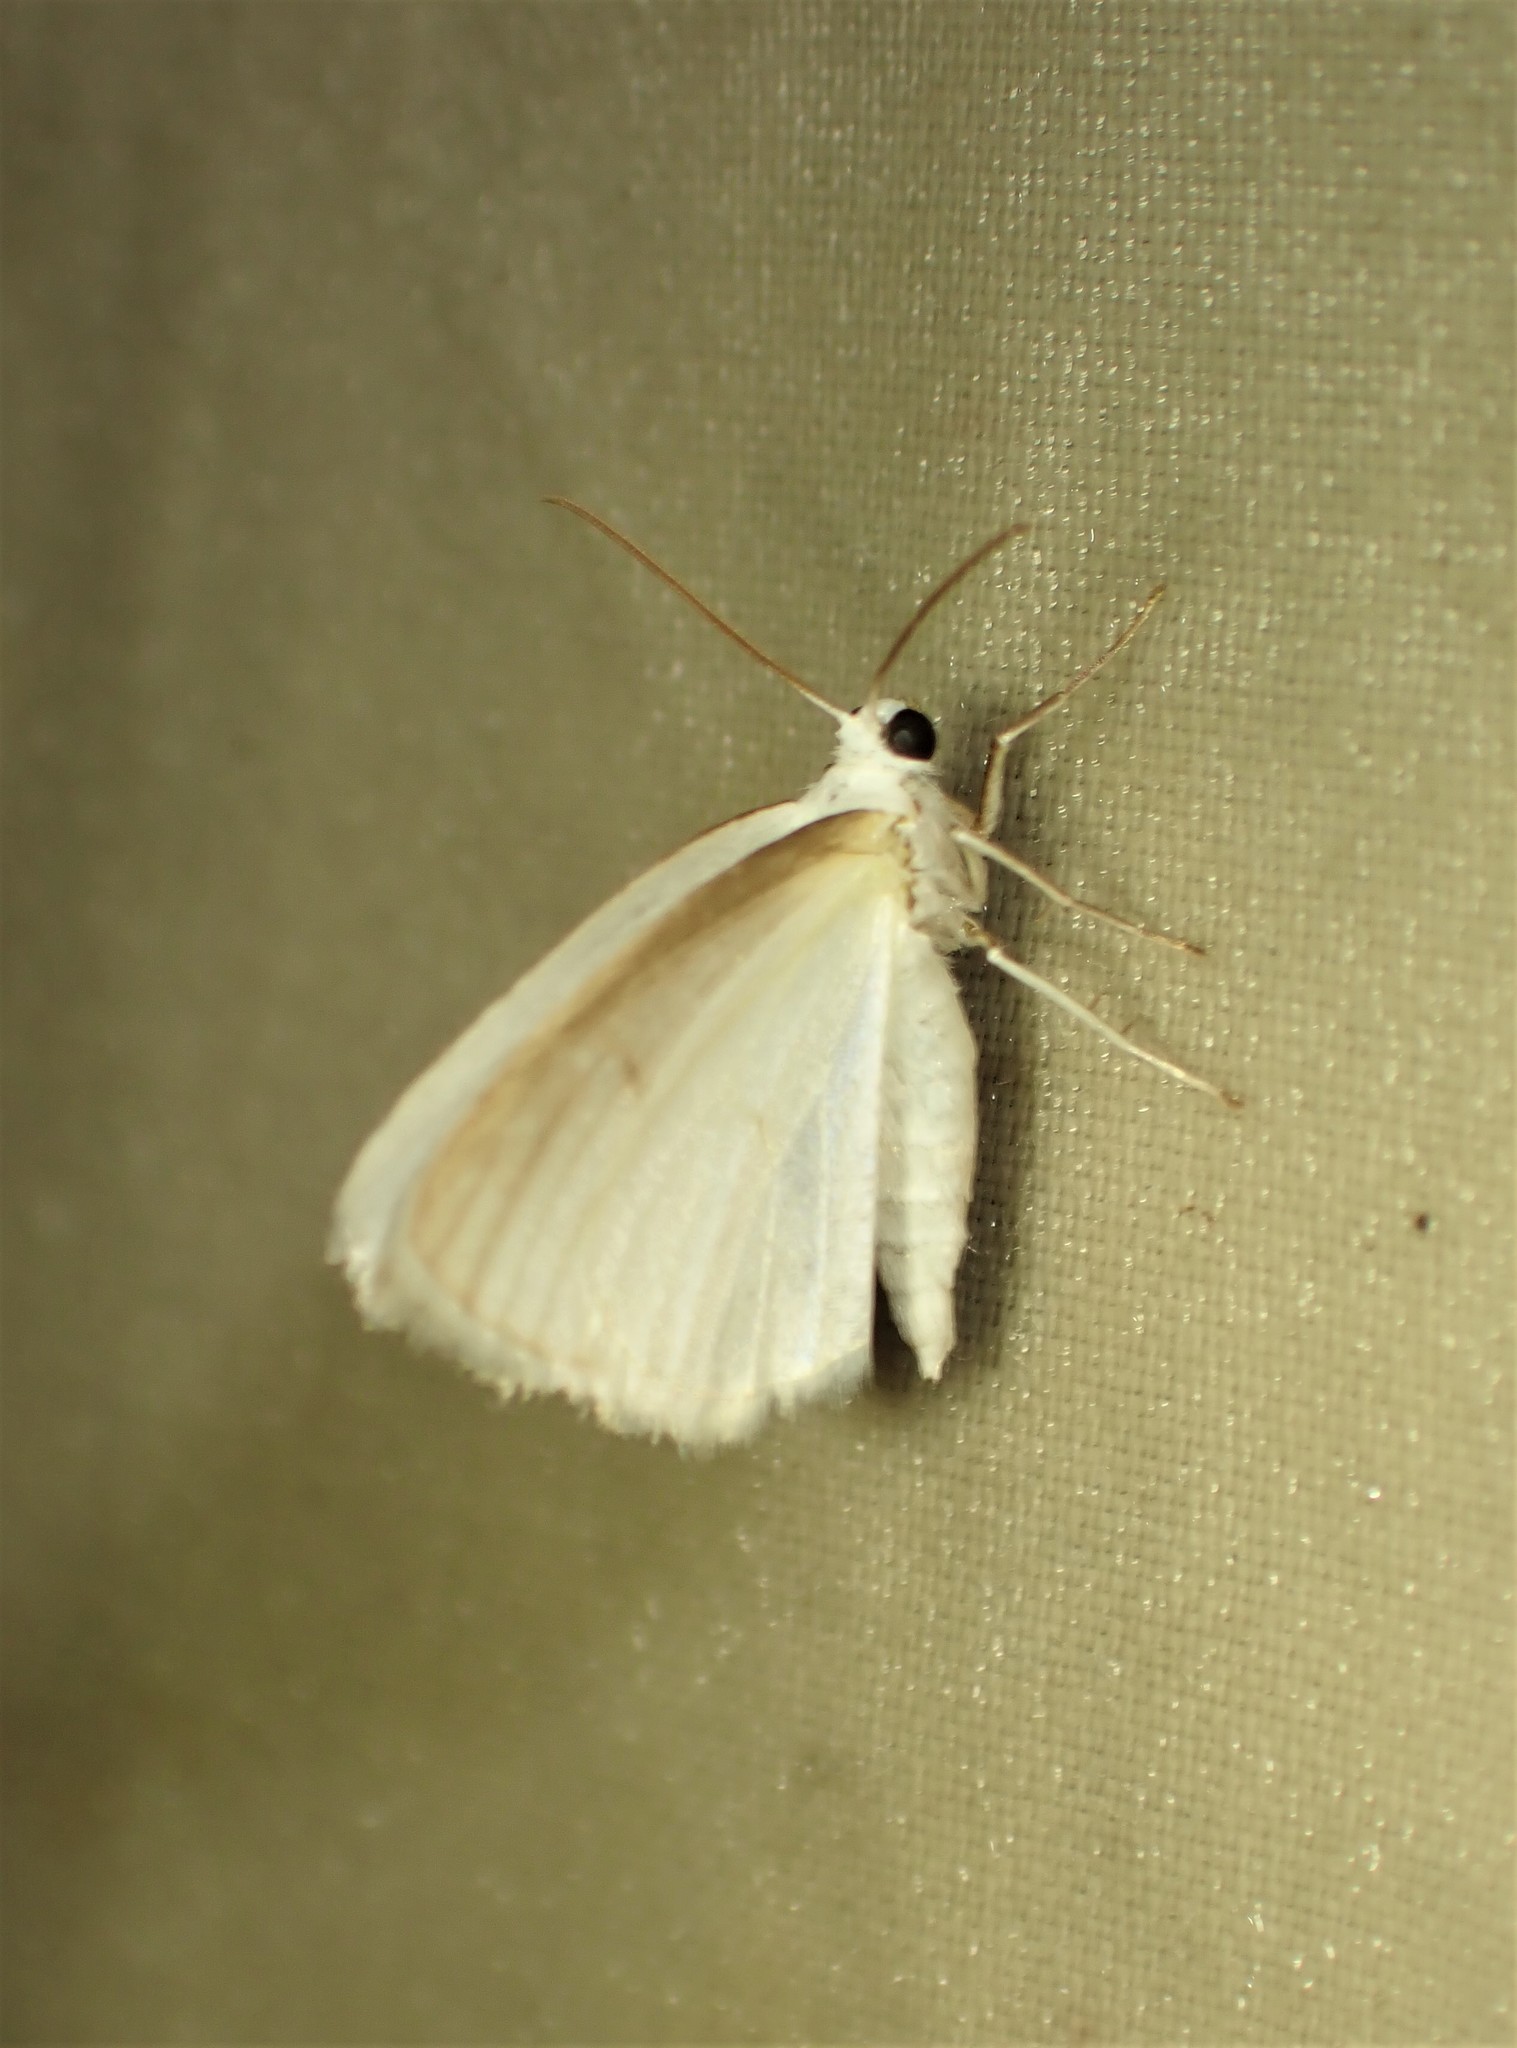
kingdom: Animalia
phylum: Arthropoda
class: Insecta
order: Lepidoptera
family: Geometridae
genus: Lomographa
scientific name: Lomographa vestaliata
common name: White spring moth
